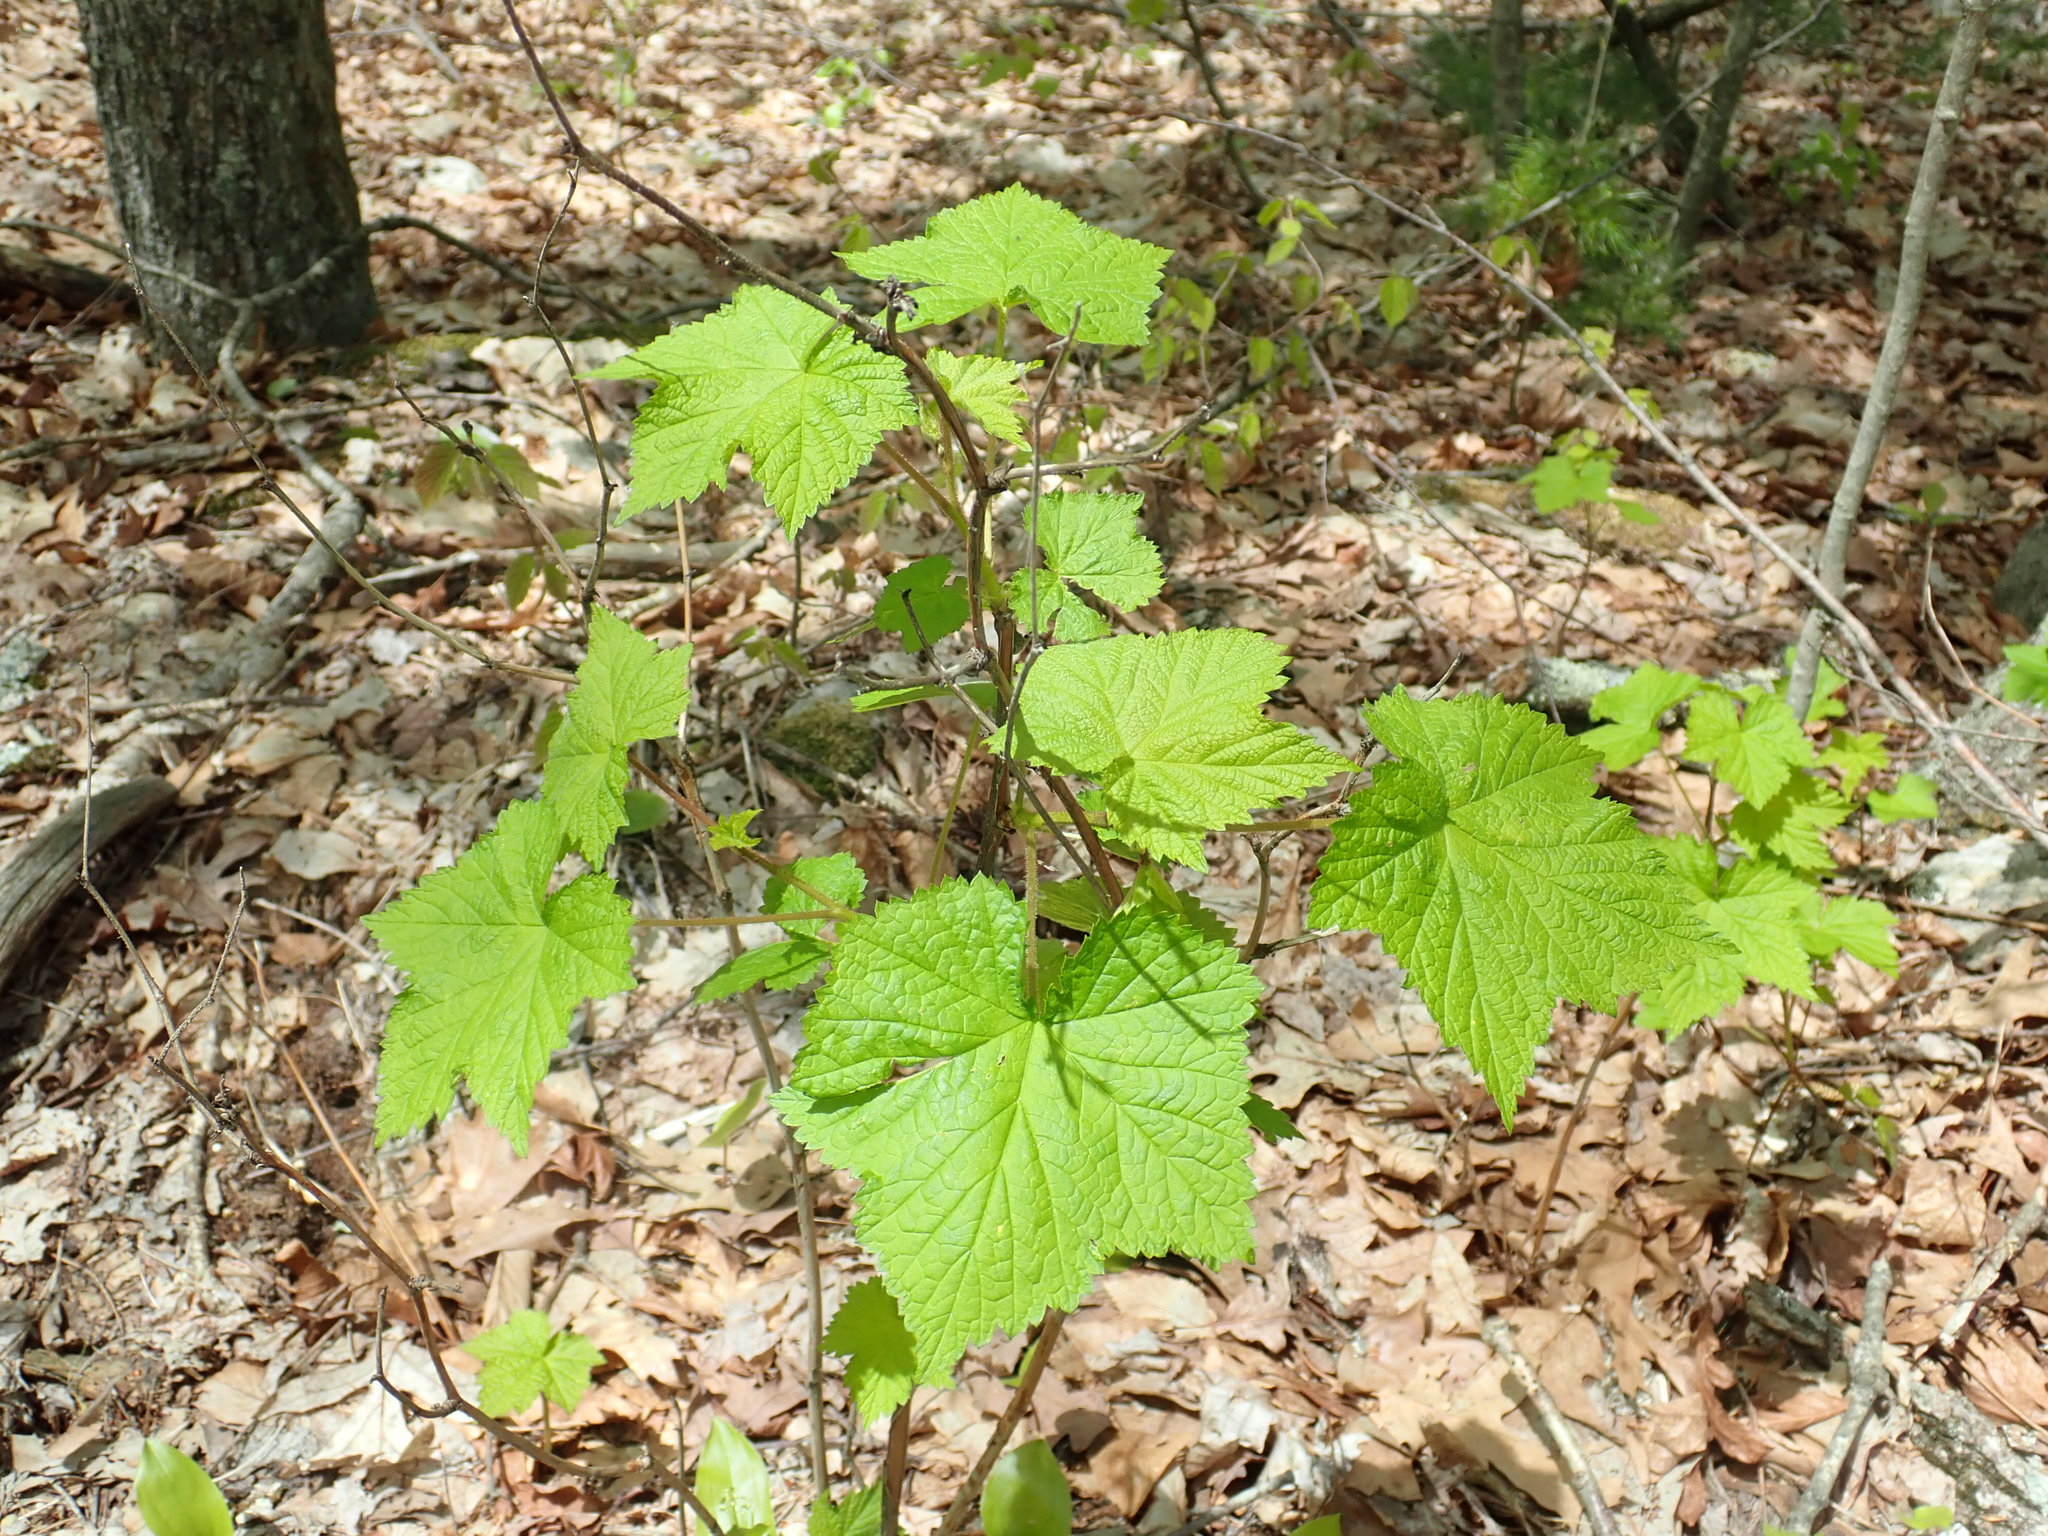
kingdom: Plantae
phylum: Tracheophyta
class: Magnoliopsida
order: Rosales
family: Rosaceae
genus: Rubus
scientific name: Rubus odoratus
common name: Purple-flowered raspberry
